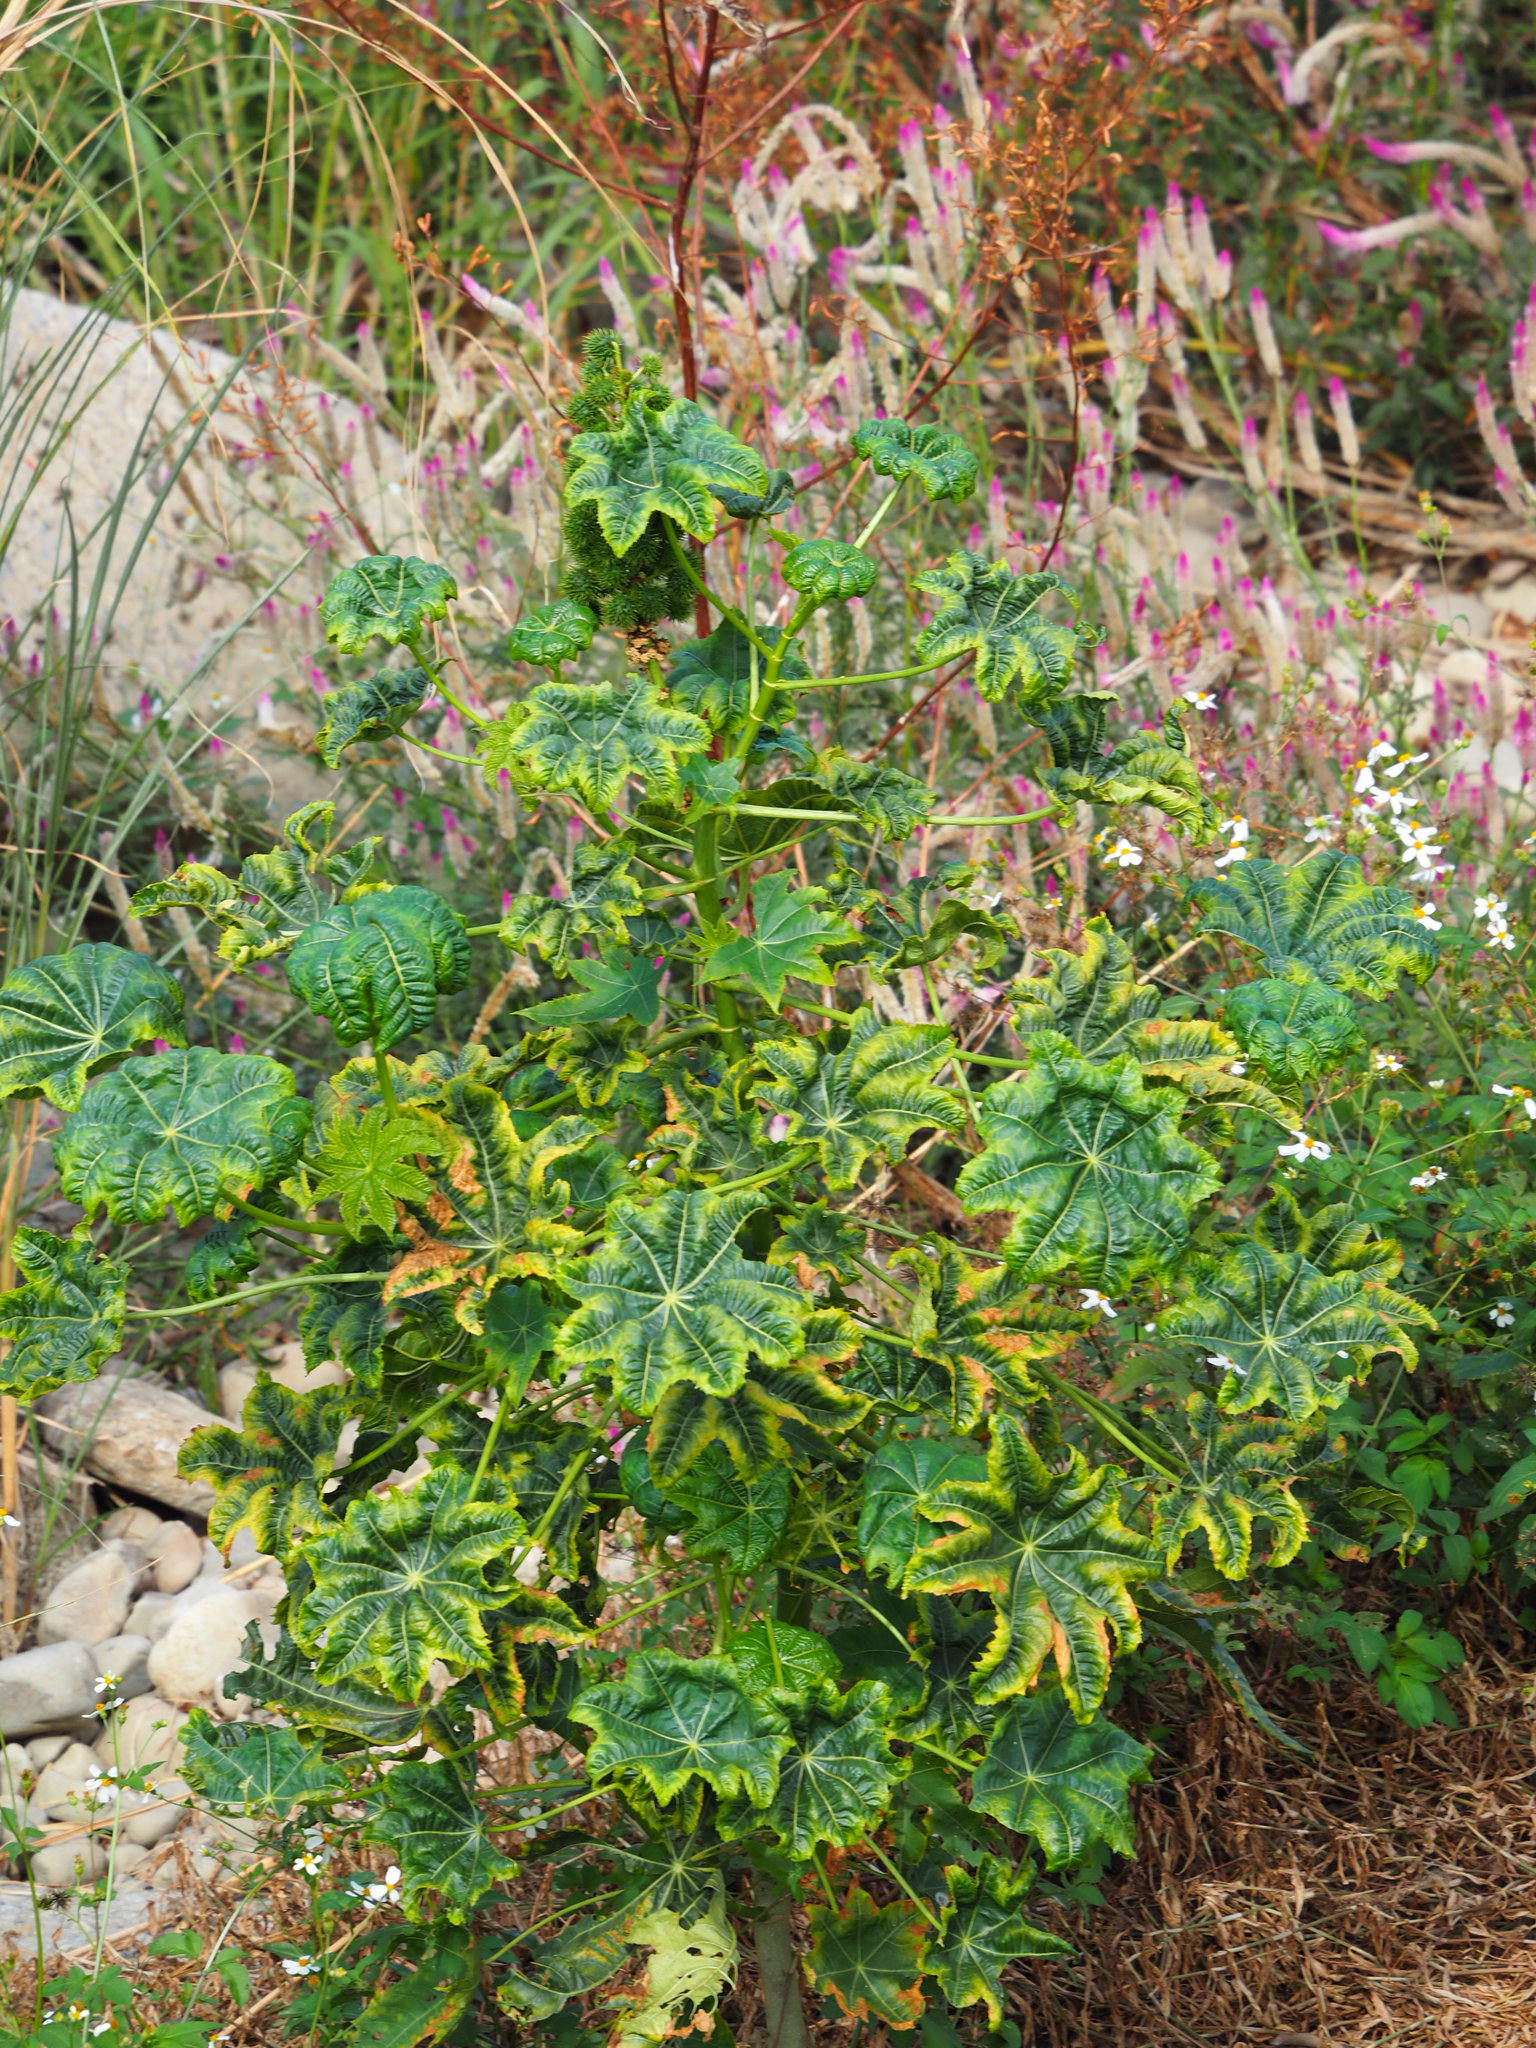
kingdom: Plantae
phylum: Tracheophyta
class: Magnoliopsida
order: Malpighiales
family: Euphorbiaceae
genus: Ricinus
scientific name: Ricinus communis
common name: Castor-oil-plant
